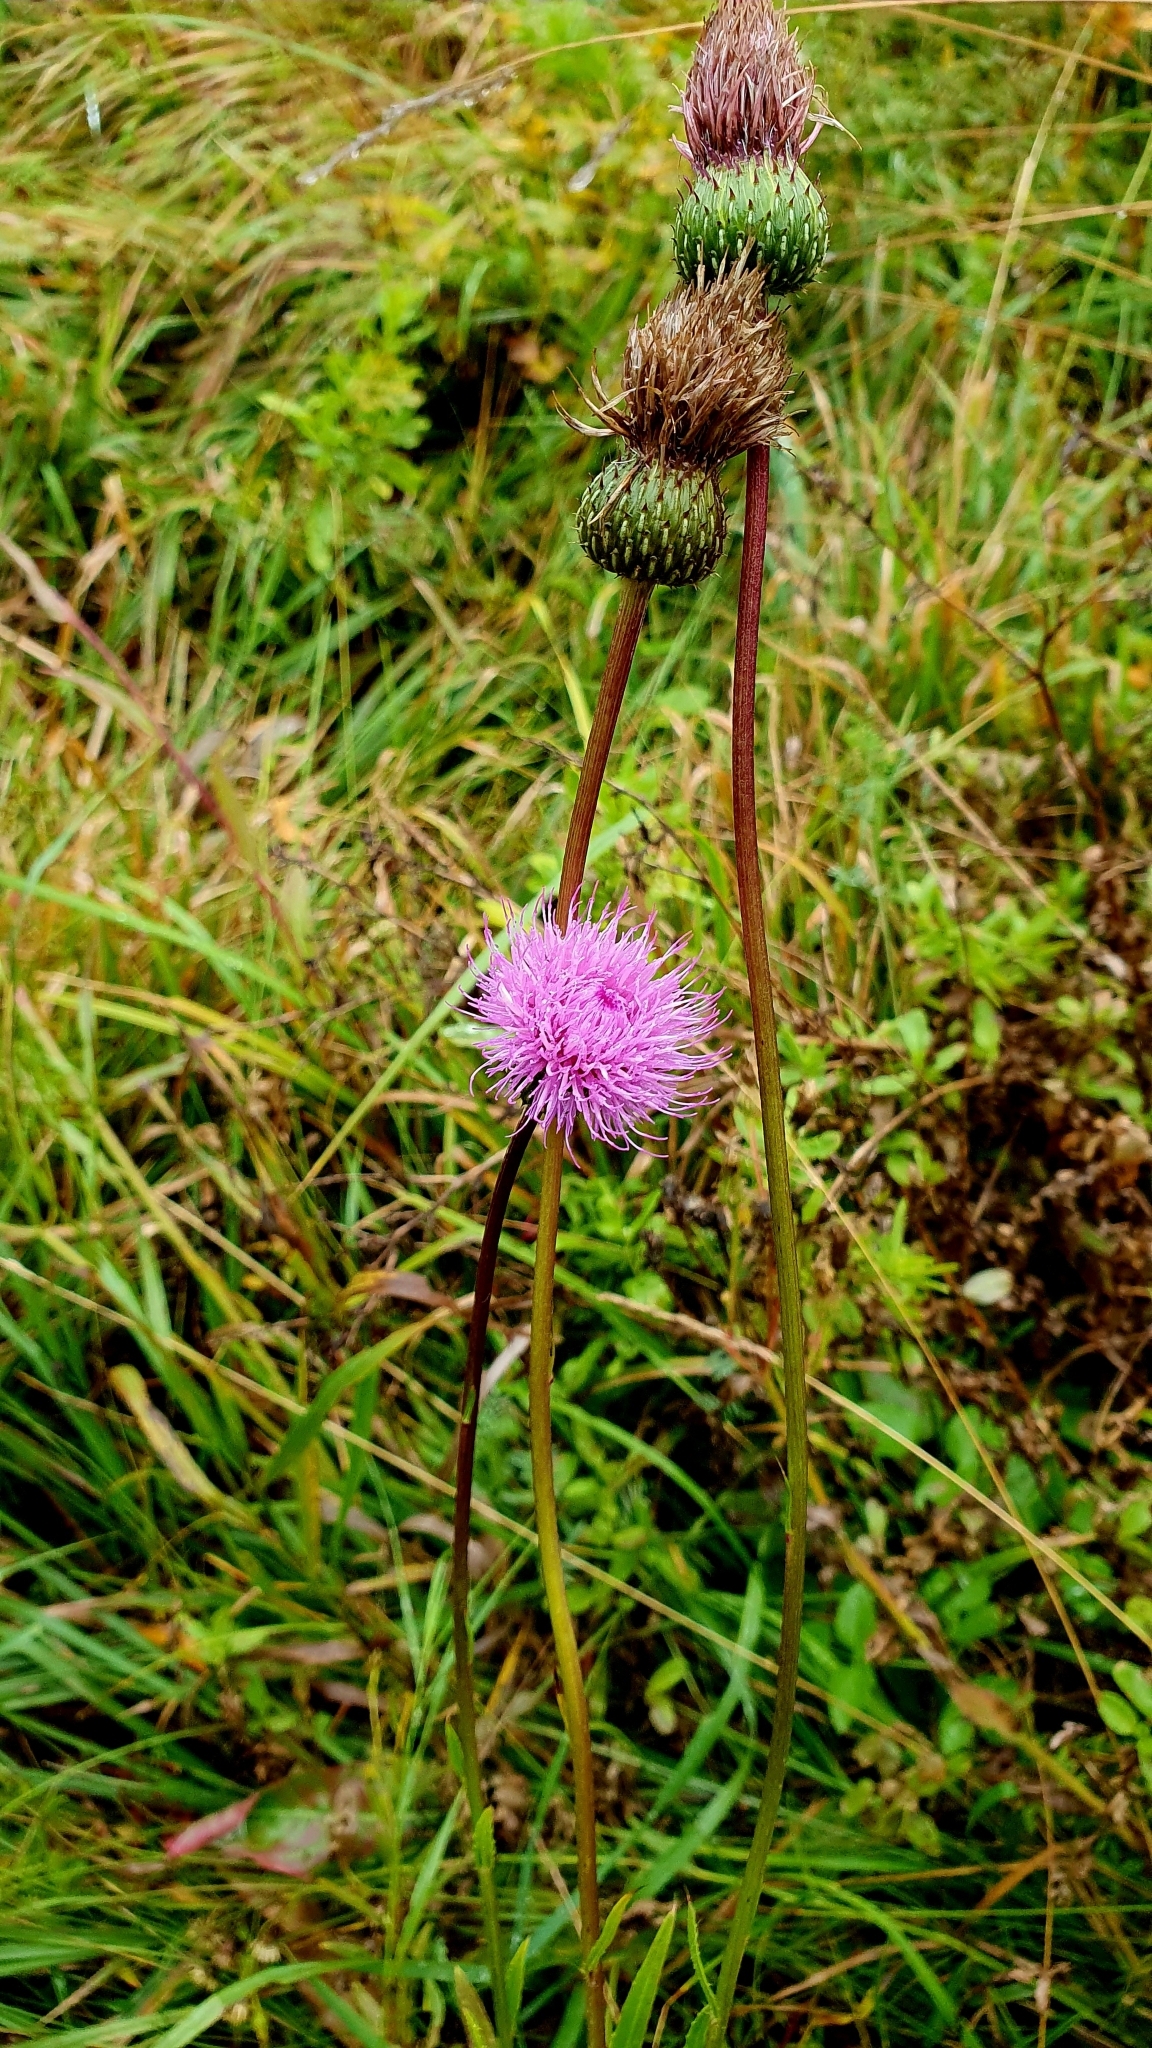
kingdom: Plantae
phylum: Tracheophyta
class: Magnoliopsida
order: Asterales
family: Asteraceae
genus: Cirsium
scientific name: Cirsium canum
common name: Queen anne's thistle
